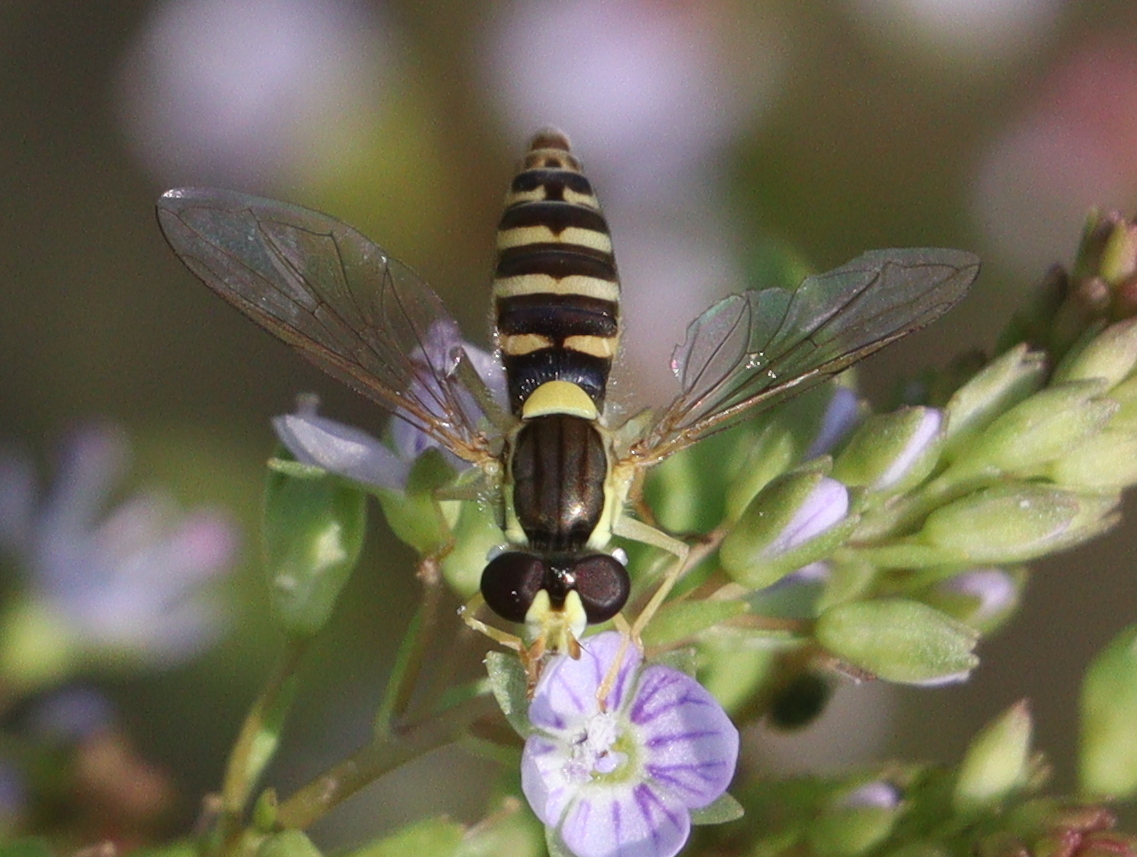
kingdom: Animalia
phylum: Arthropoda
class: Insecta
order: Diptera
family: Syrphidae
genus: Sphaerophoria
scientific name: Sphaerophoria
